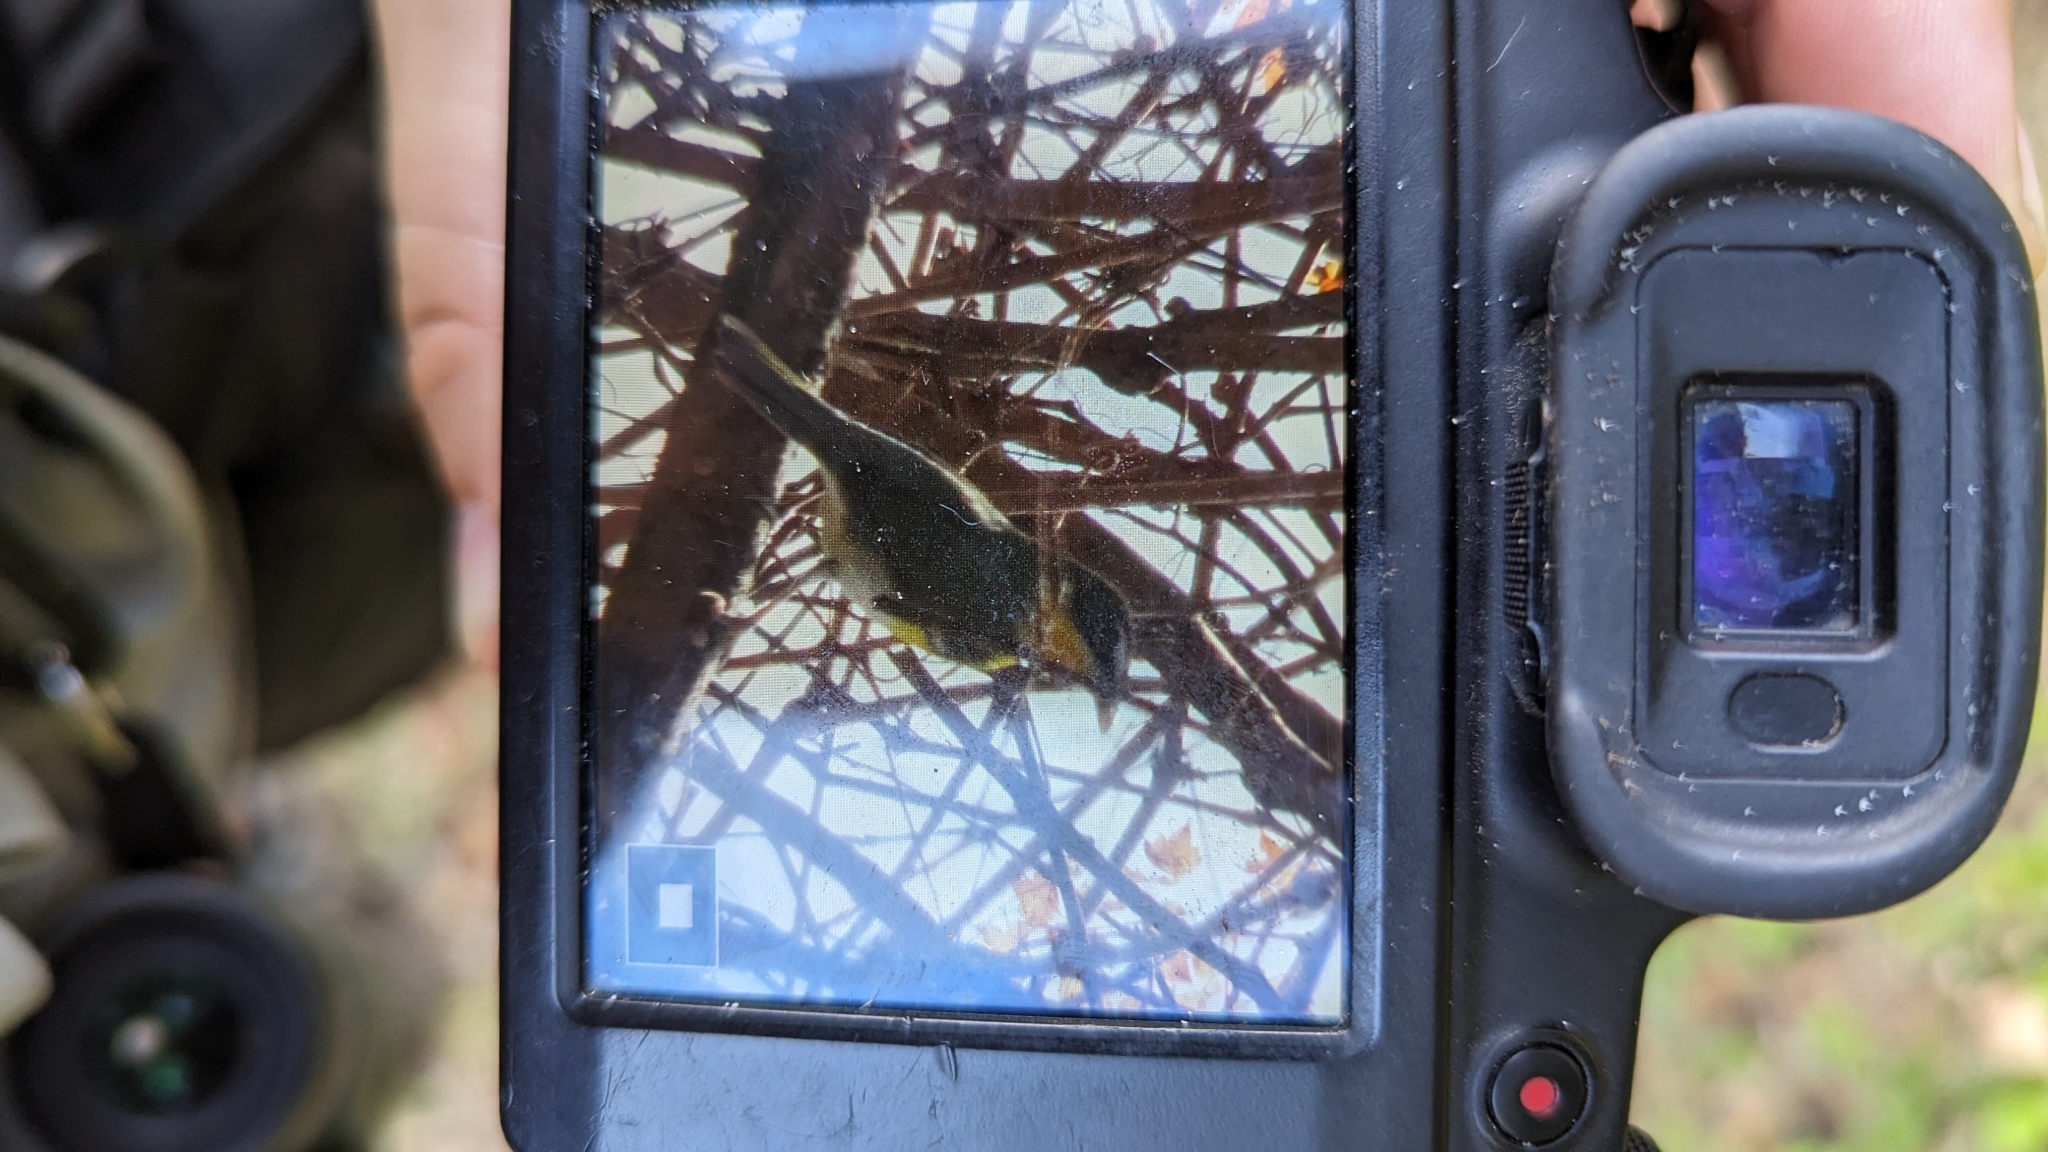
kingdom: Animalia
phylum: Chordata
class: Aves
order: Passeriformes
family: Parulidae
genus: Icteria
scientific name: Icteria virens
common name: Yellow-breasted chat
